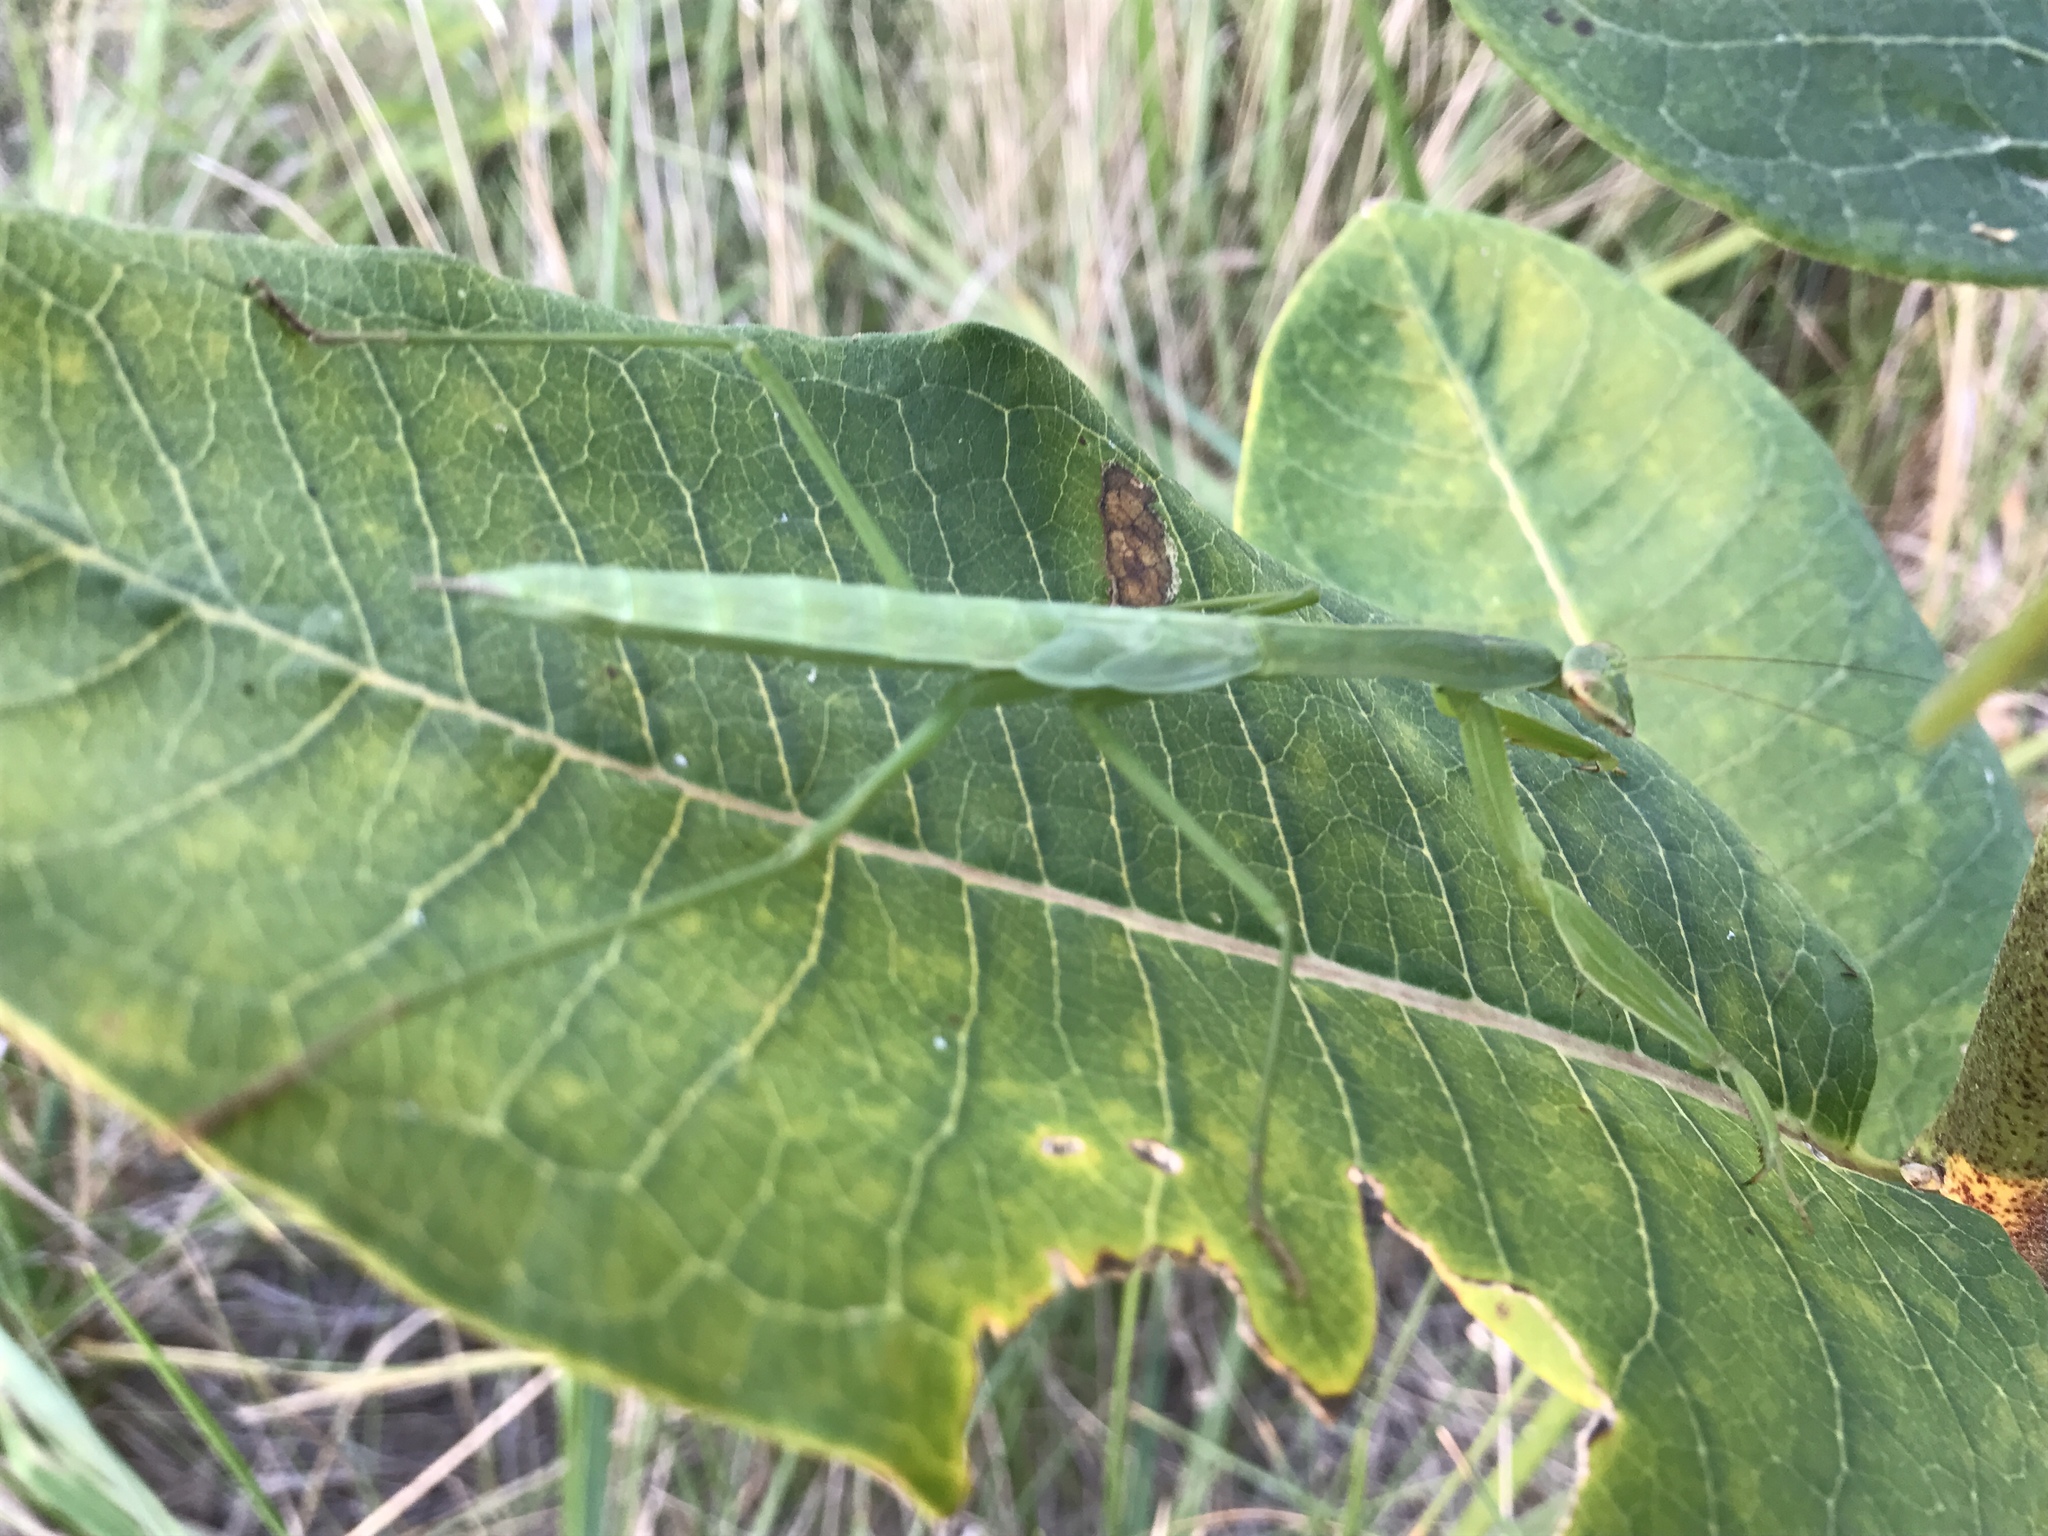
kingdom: Animalia
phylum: Arthropoda
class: Insecta
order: Mantodea
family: Mantidae
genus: Tenodera
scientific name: Tenodera sinensis
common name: Chinese mantis
